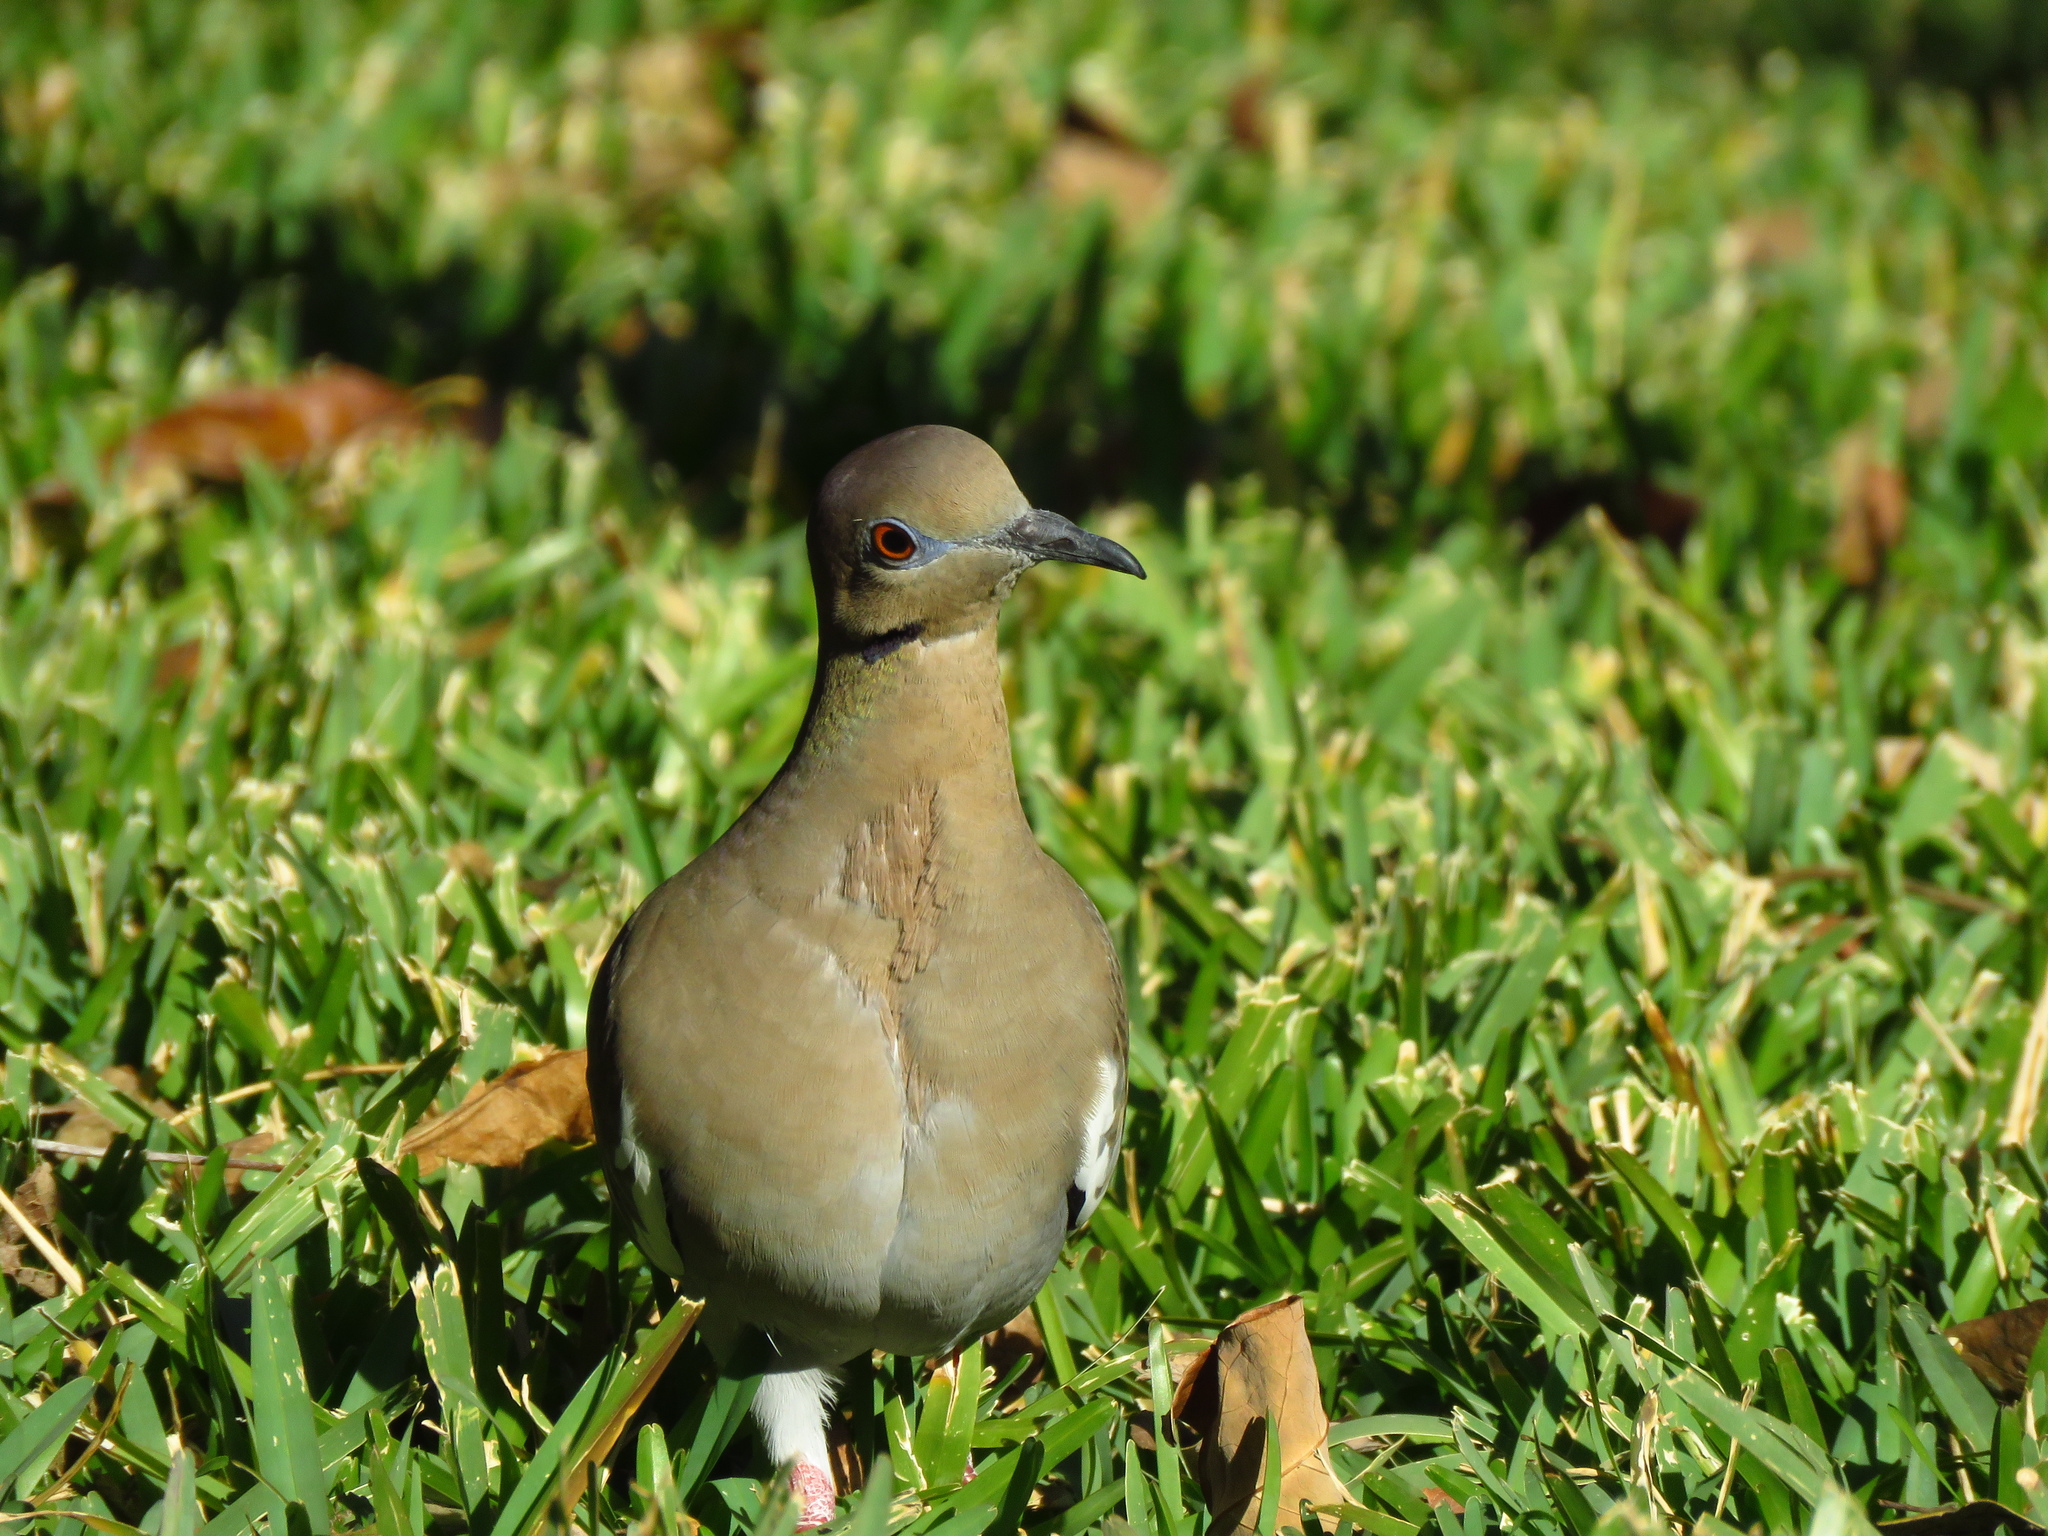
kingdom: Animalia
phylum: Chordata
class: Aves
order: Columbiformes
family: Columbidae
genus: Zenaida
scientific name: Zenaida asiatica
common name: White-winged dove
